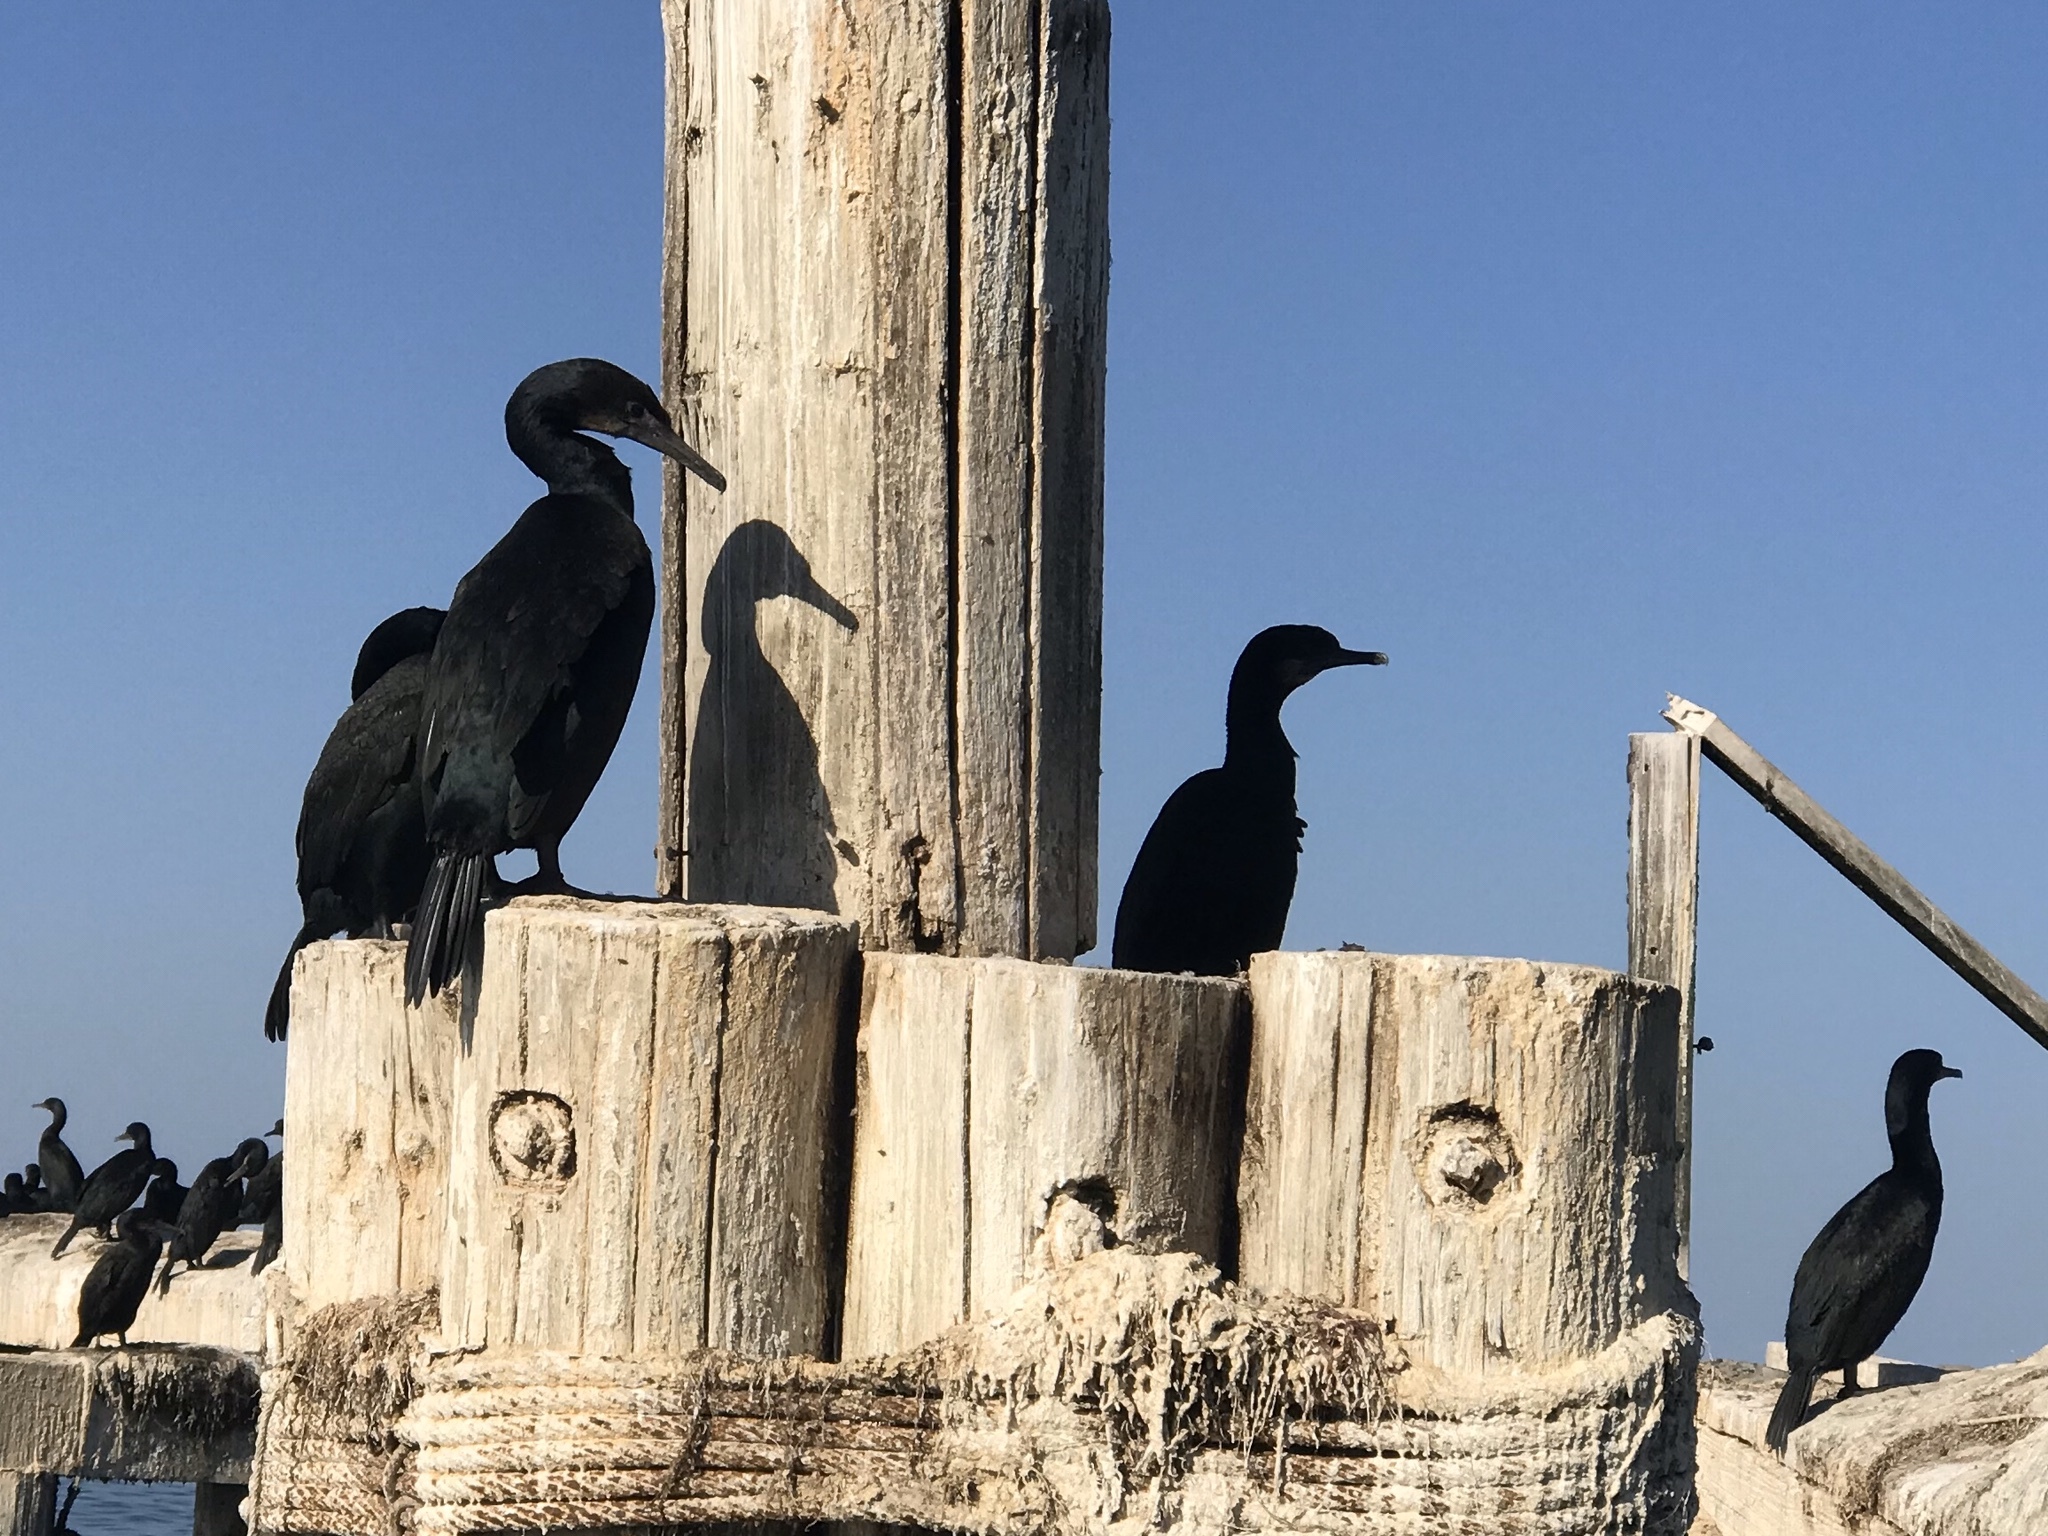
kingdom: Animalia
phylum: Chordata
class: Aves
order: Suliformes
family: Phalacrocoracidae
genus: Urile
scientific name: Urile penicillatus
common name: Brandt's cormorant
